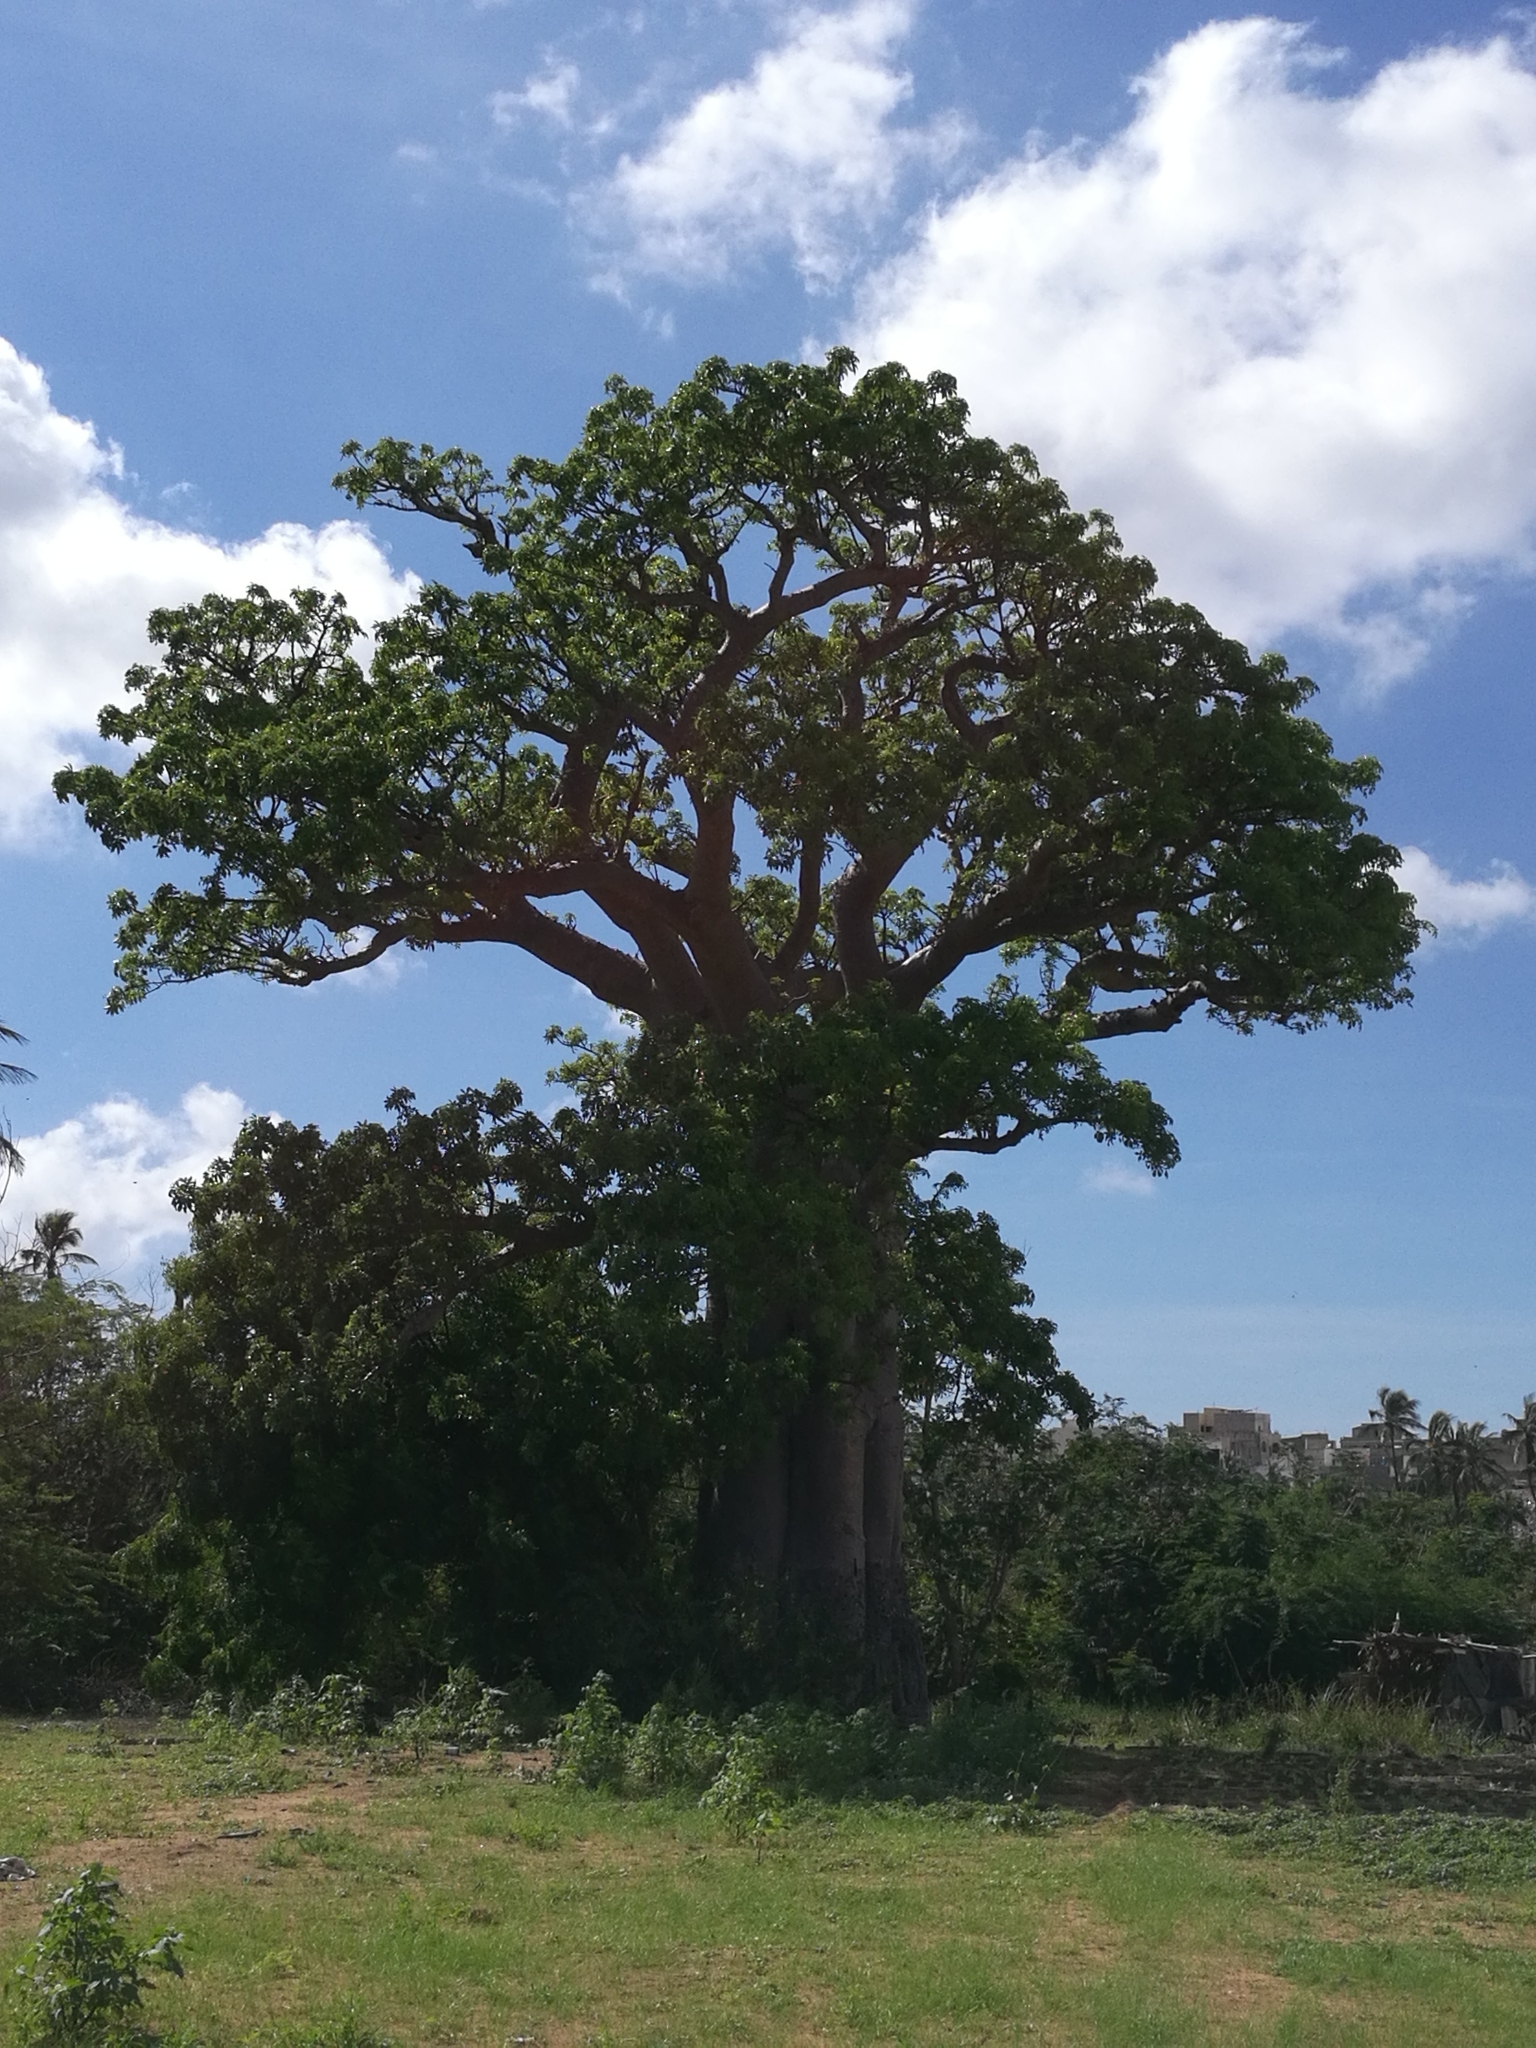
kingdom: Plantae
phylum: Tracheophyta
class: Magnoliopsida
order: Malvales
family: Malvaceae
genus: Adansonia
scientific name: Adansonia digitata
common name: Dead-rat-tree
